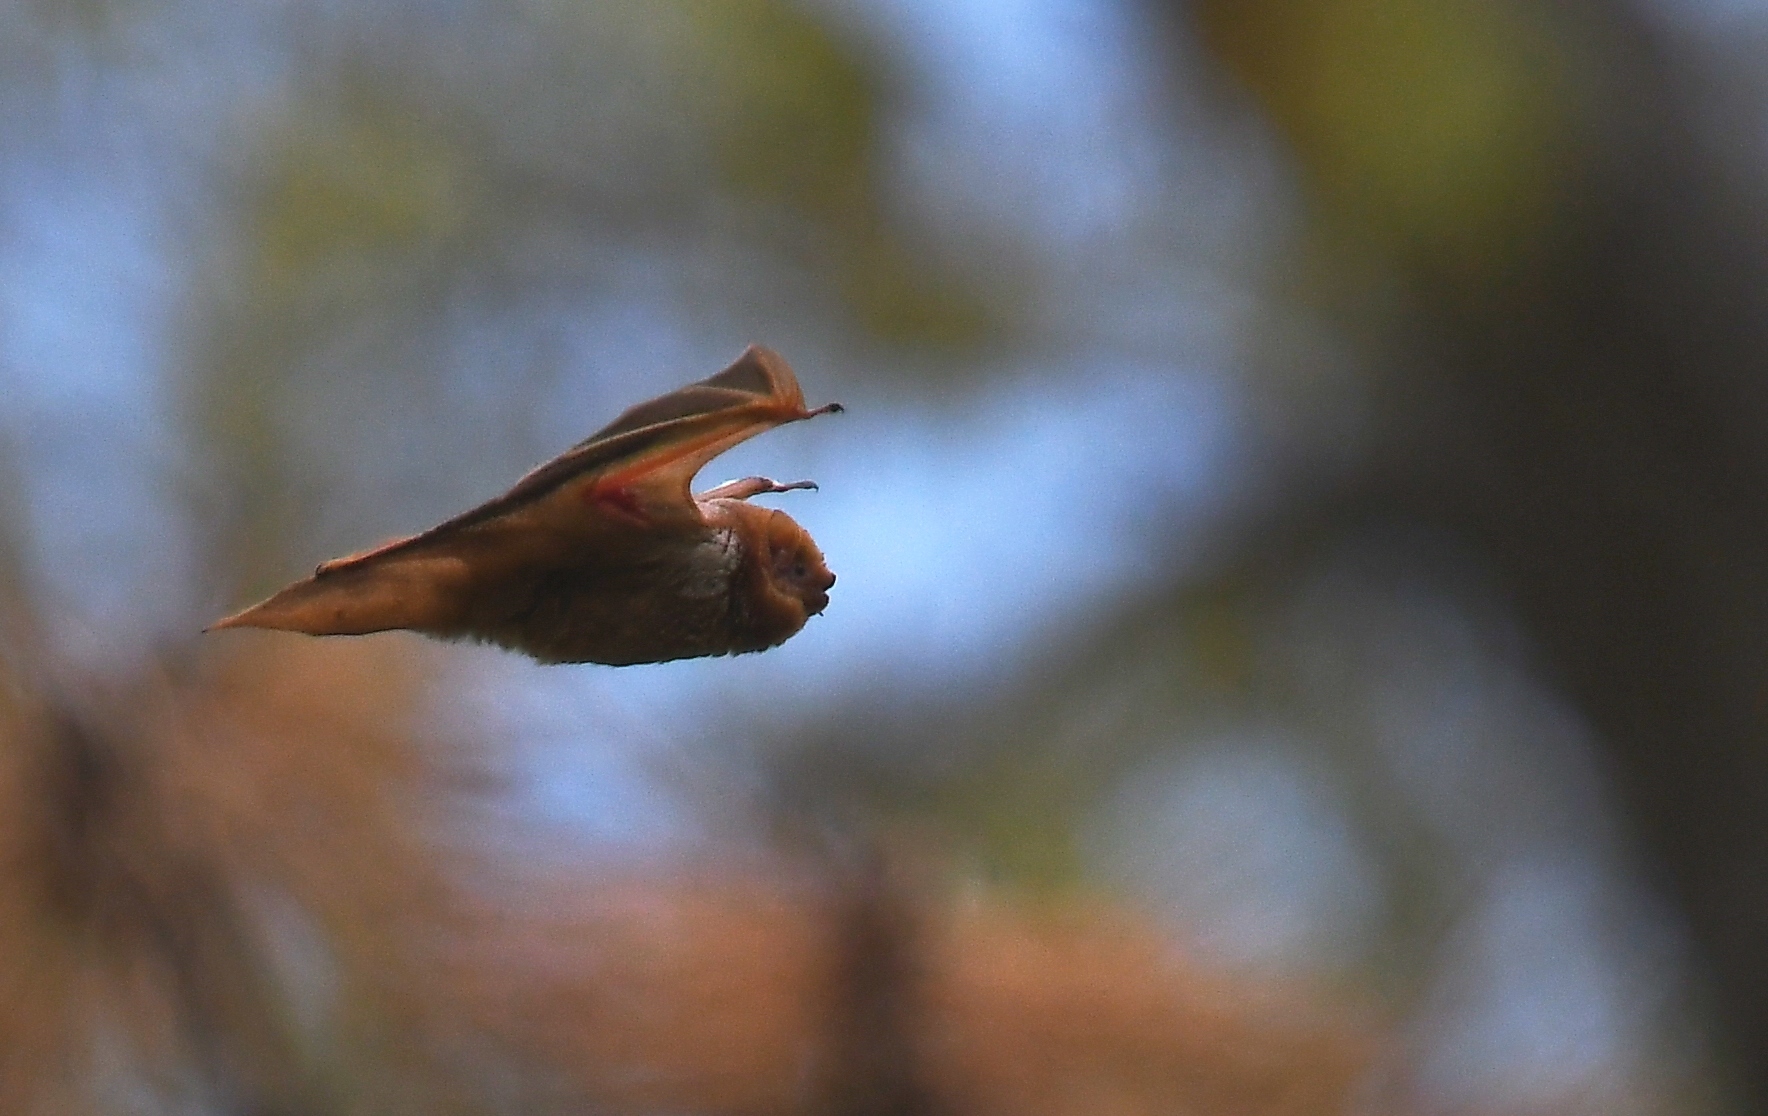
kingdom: Animalia
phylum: Chordata
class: Mammalia
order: Chiroptera
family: Vespertilionidae
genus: Lasiurus
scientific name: Lasiurus borealis
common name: Eastern red bat
